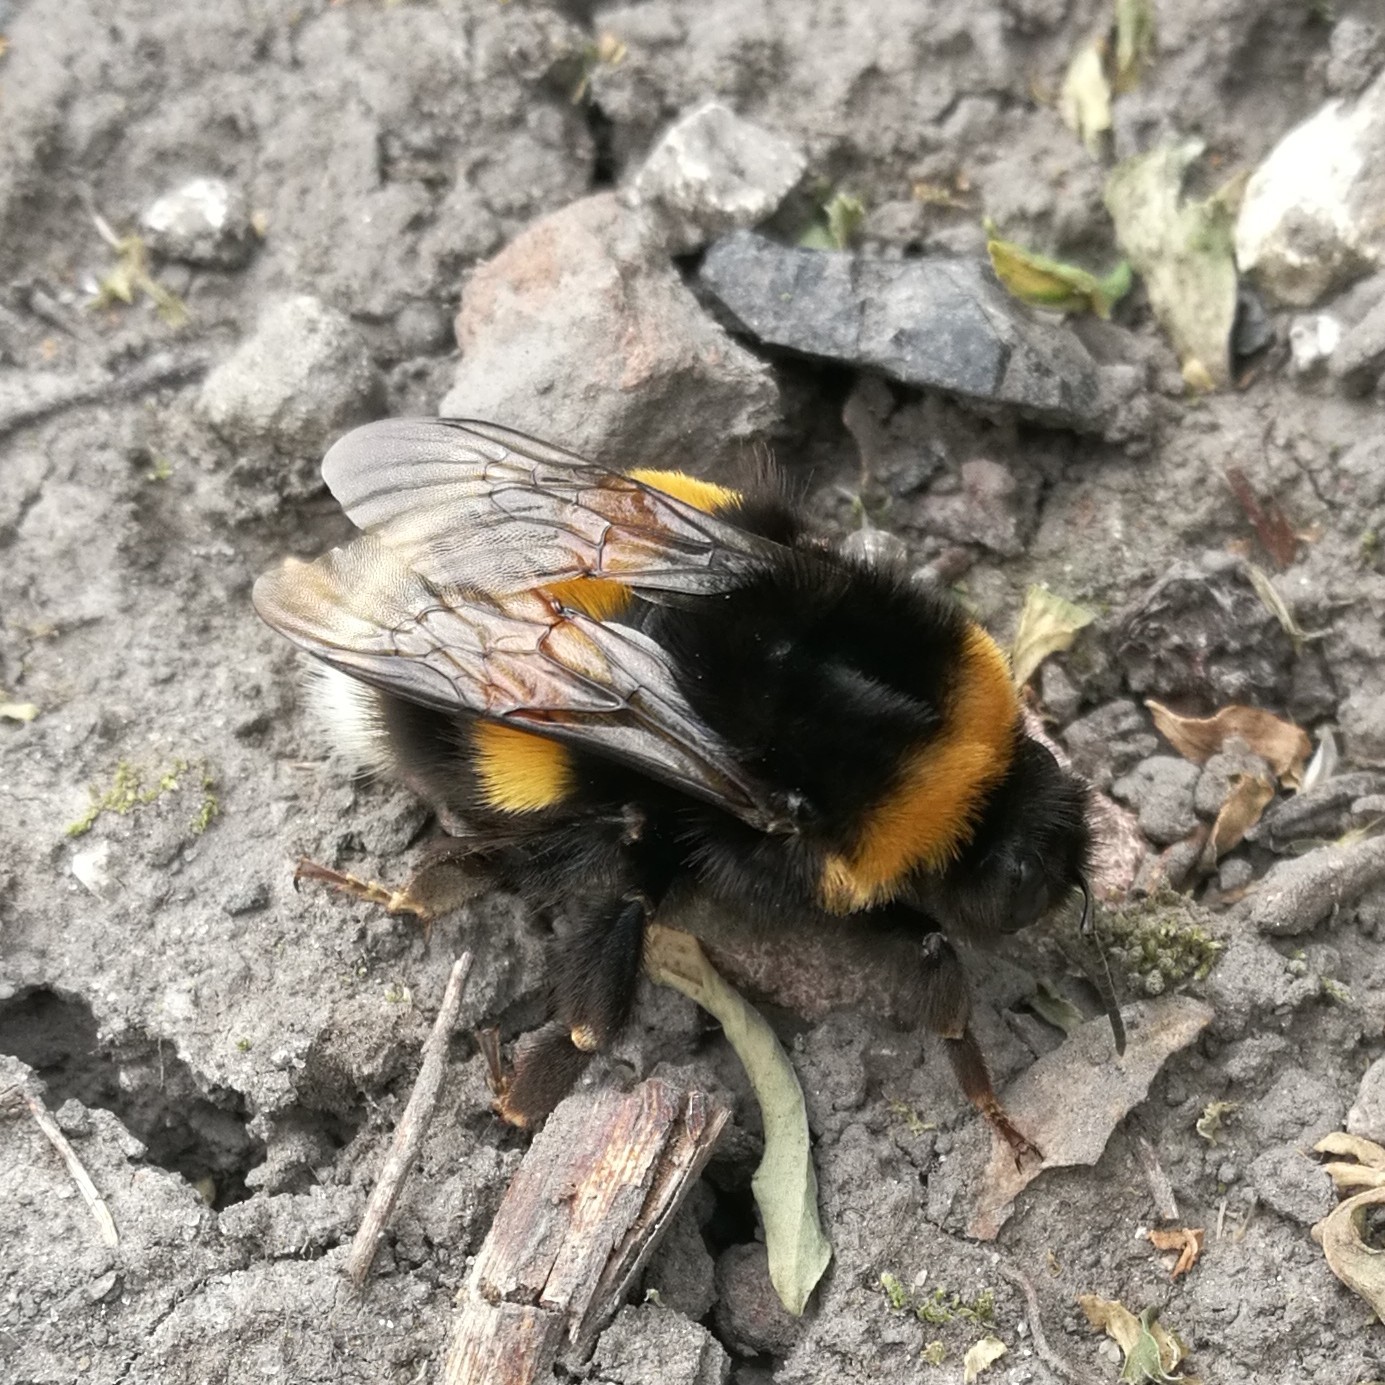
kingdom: Animalia
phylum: Arthropoda
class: Insecta
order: Hymenoptera
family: Apidae
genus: Bombus
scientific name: Bombus
